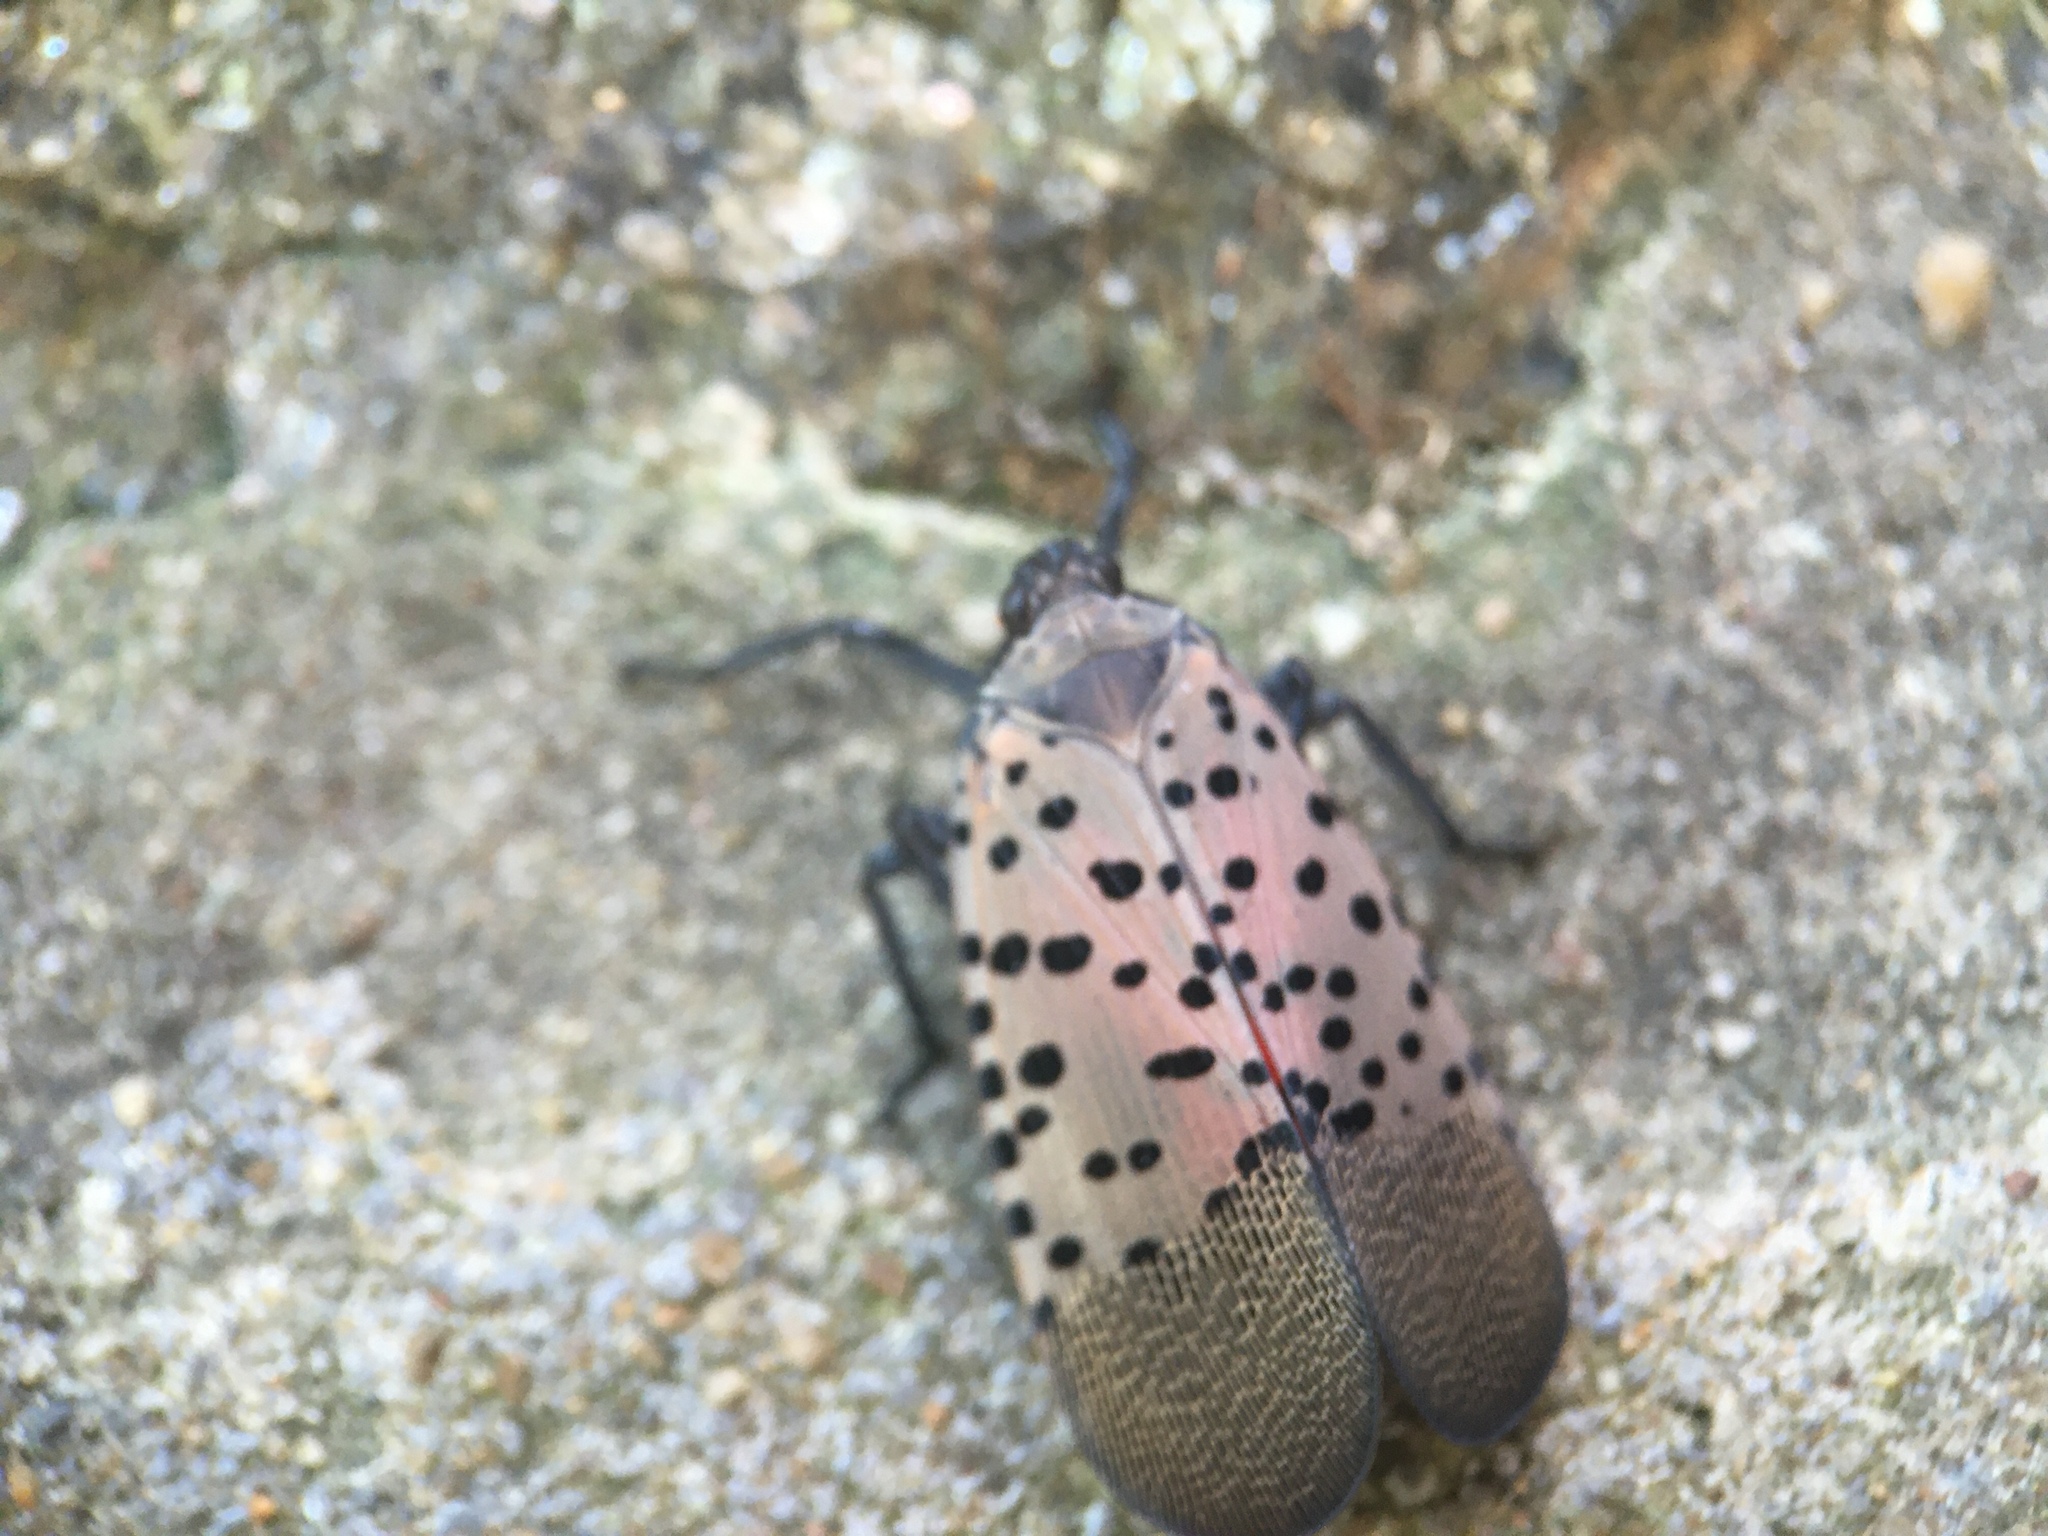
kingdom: Animalia
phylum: Arthropoda
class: Insecta
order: Hemiptera
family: Fulgoridae
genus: Lycorma
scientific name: Lycorma delicatula
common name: Spotted lanternfly
